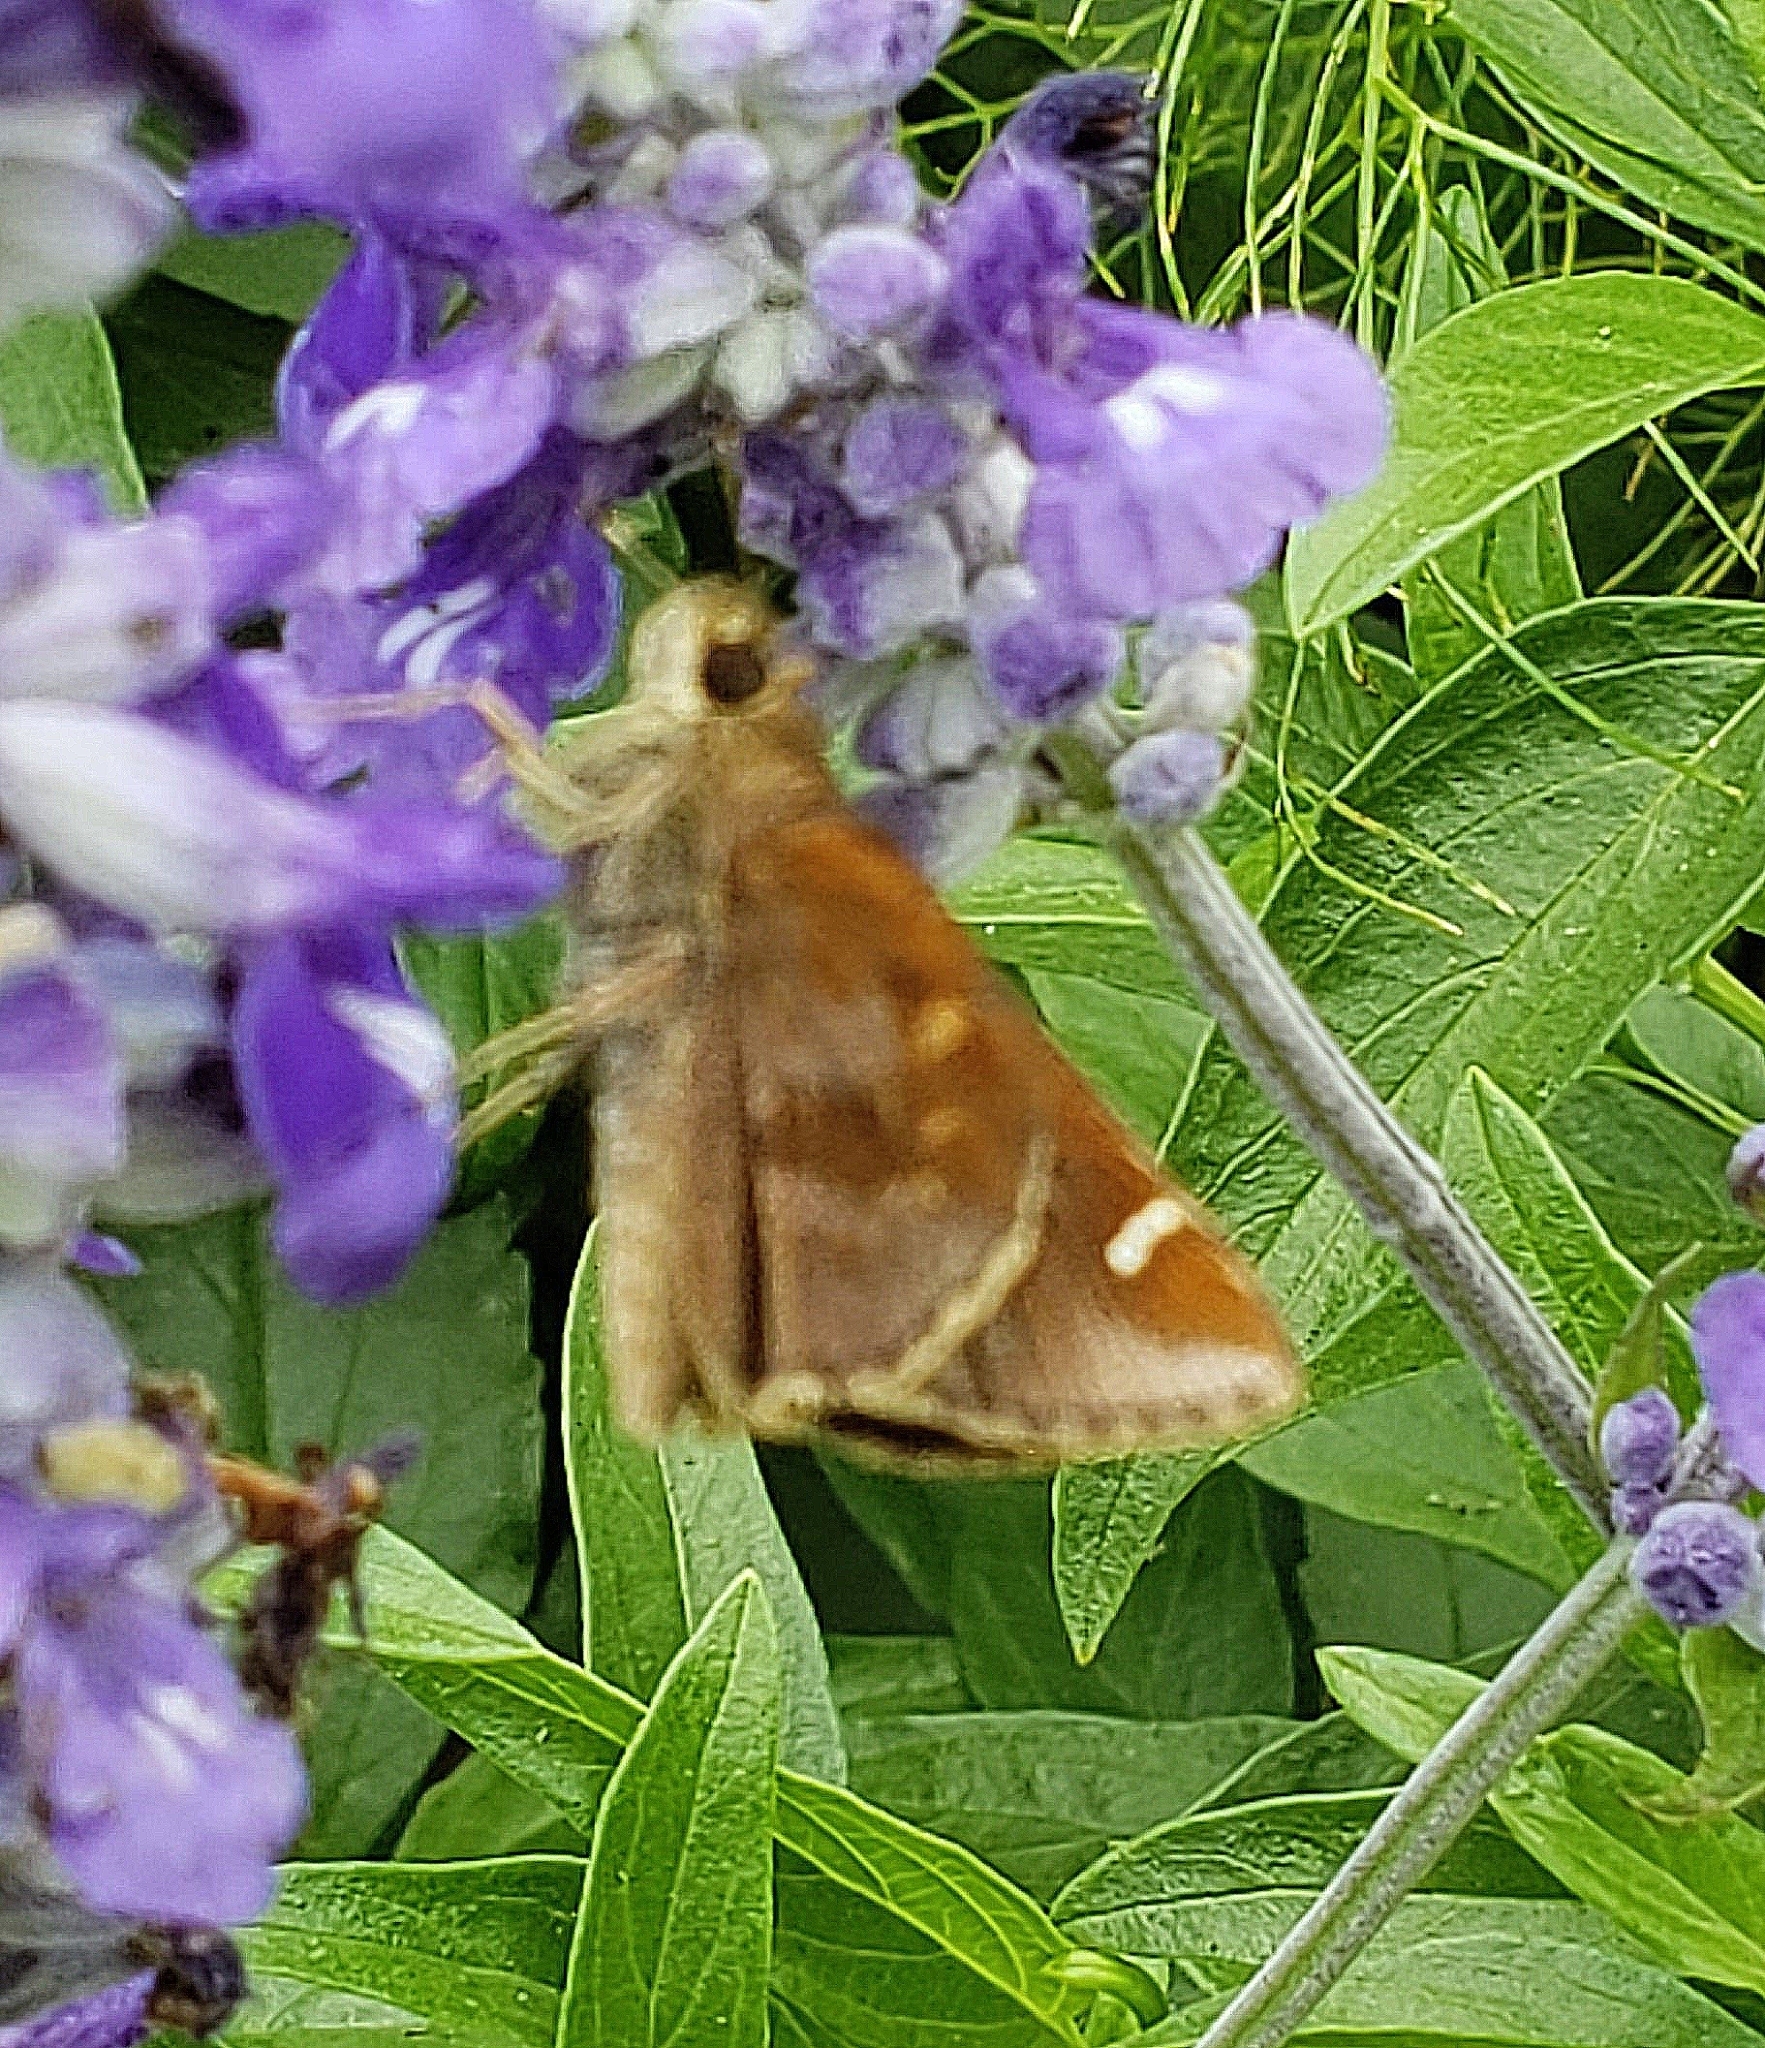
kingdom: Animalia
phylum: Arthropoda
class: Insecta
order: Lepidoptera
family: Hesperiidae
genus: Lerema
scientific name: Lerema accius
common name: Clouded skipper
